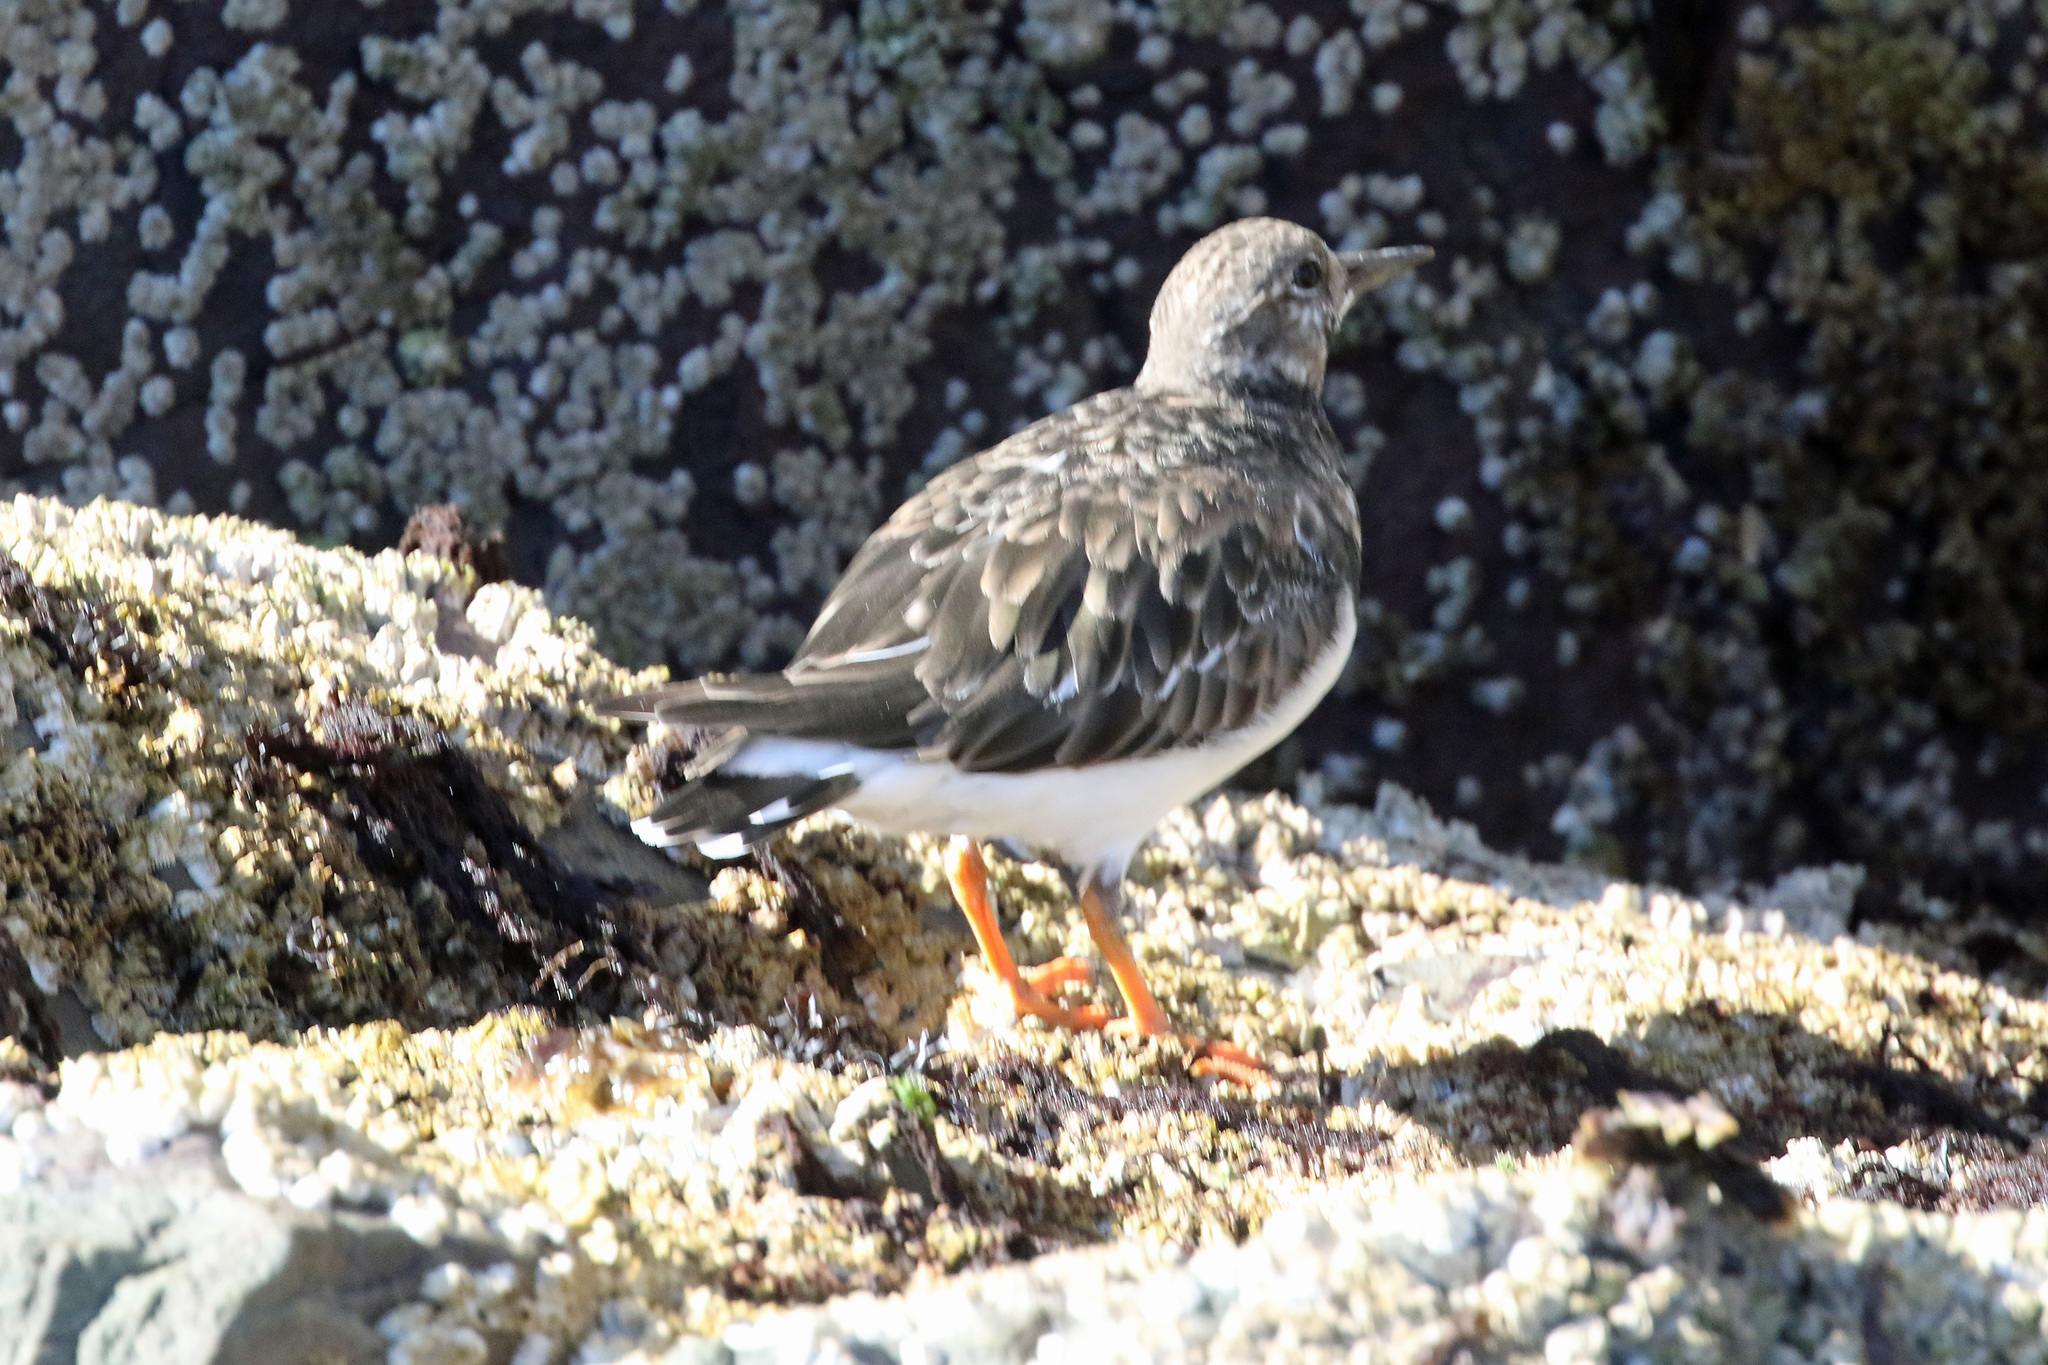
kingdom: Animalia
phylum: Chordata
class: Aves
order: Charadriiformes
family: Scolopacidae
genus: Arenaria
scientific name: Arenaria interpres
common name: Ruddy turnstone
